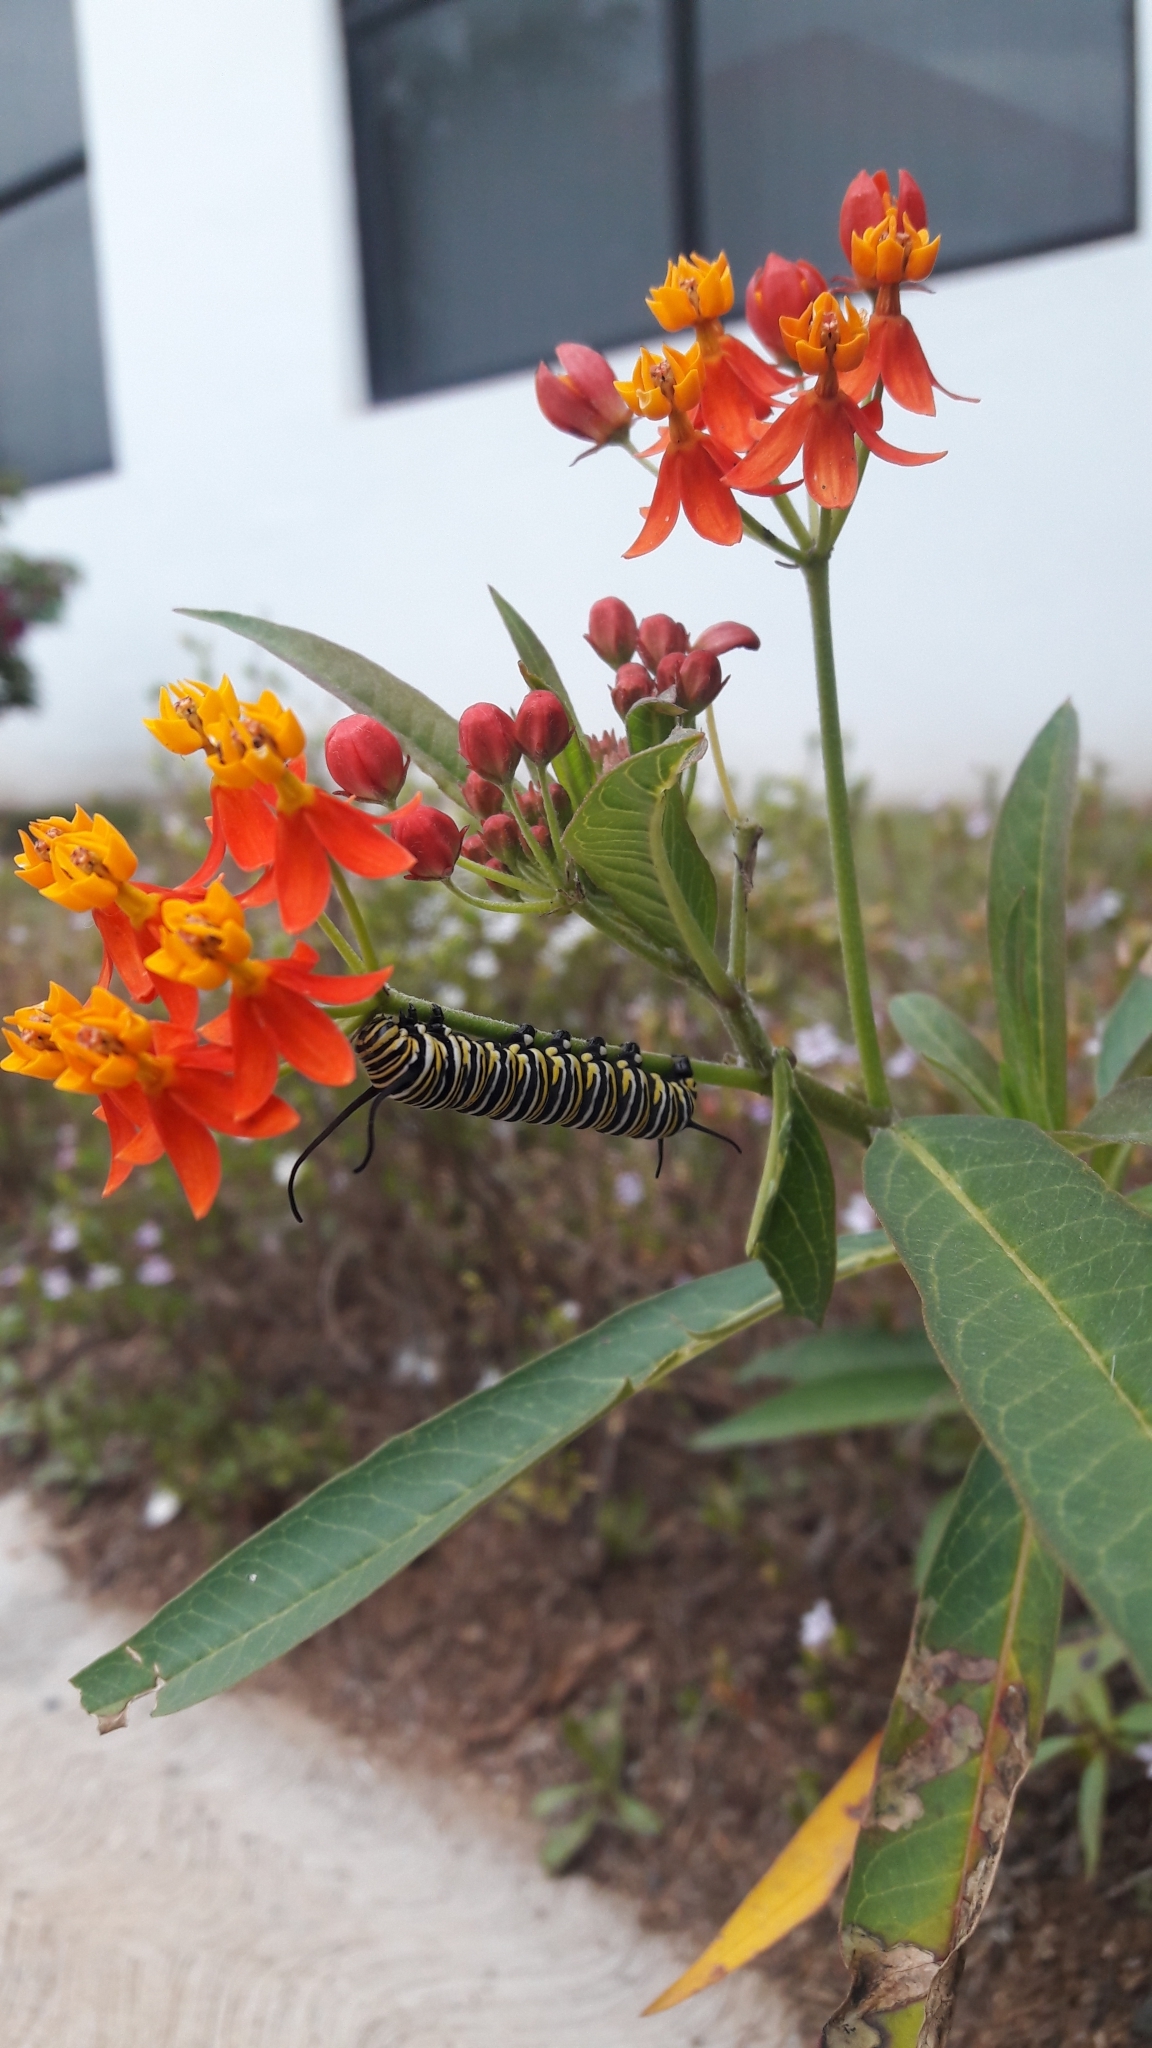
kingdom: Animalia
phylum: Arthropoda
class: Insecta
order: Lepidoptera
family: Nymphalidae
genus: Danaus
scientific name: Danaus plexippus
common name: Monarch
